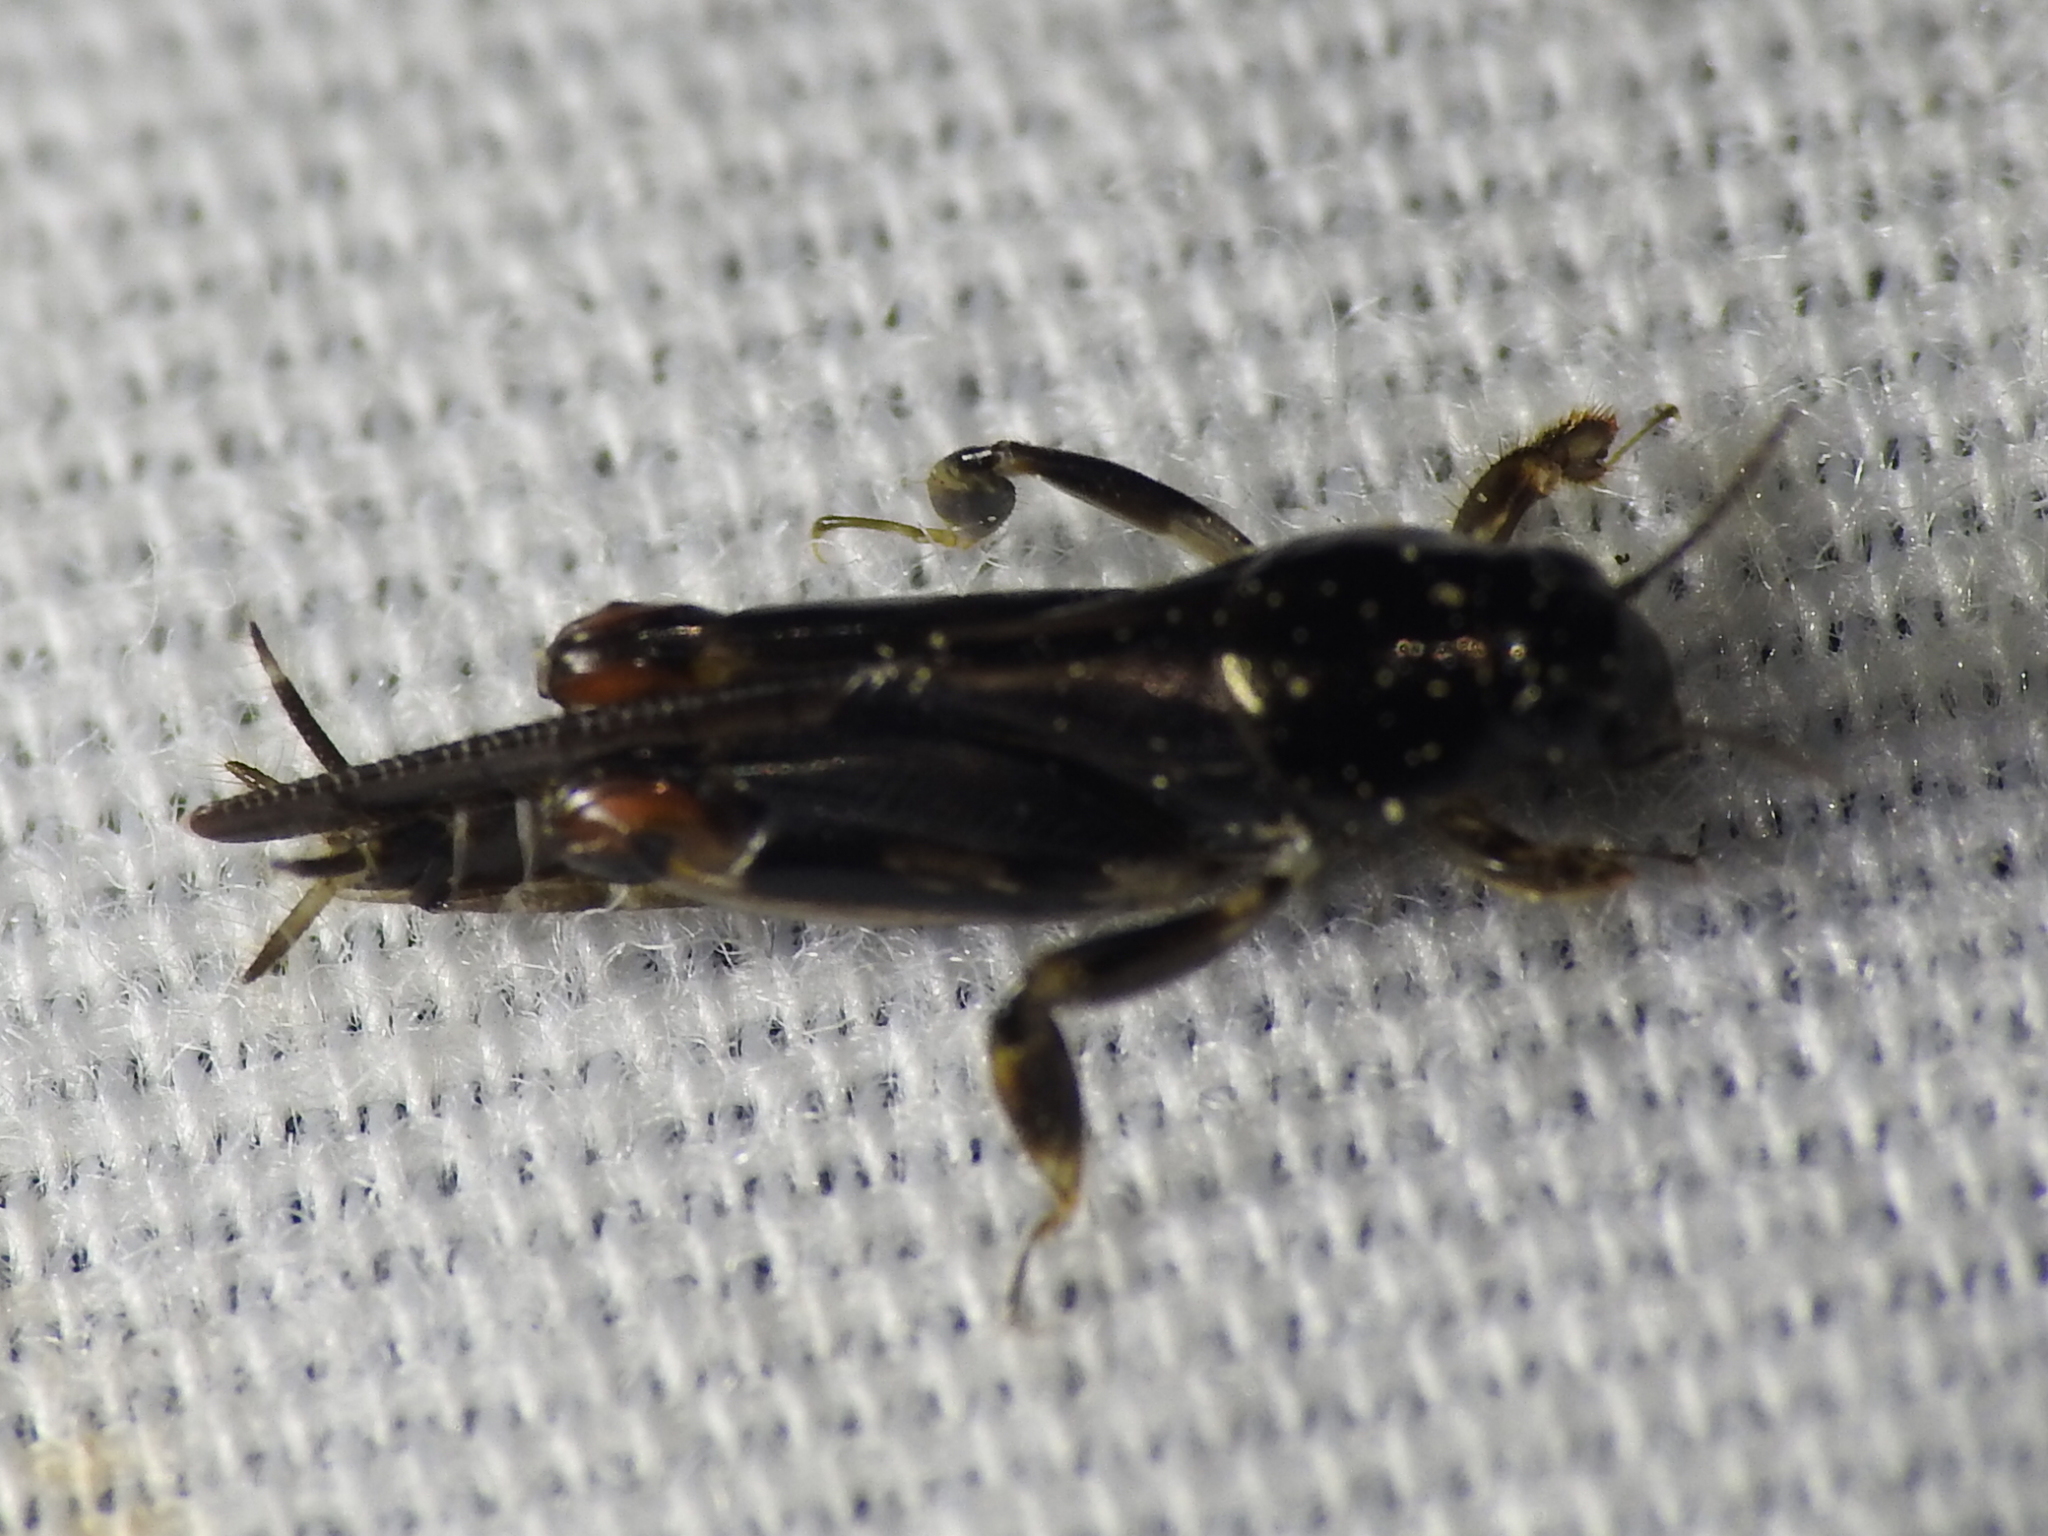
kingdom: Animalia
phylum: Arthropoda
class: Insecta
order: Orthoptera
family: Tridactylidae
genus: Neotridactylus
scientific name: Neotridactylus apicialis
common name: Larger pygmy locust
